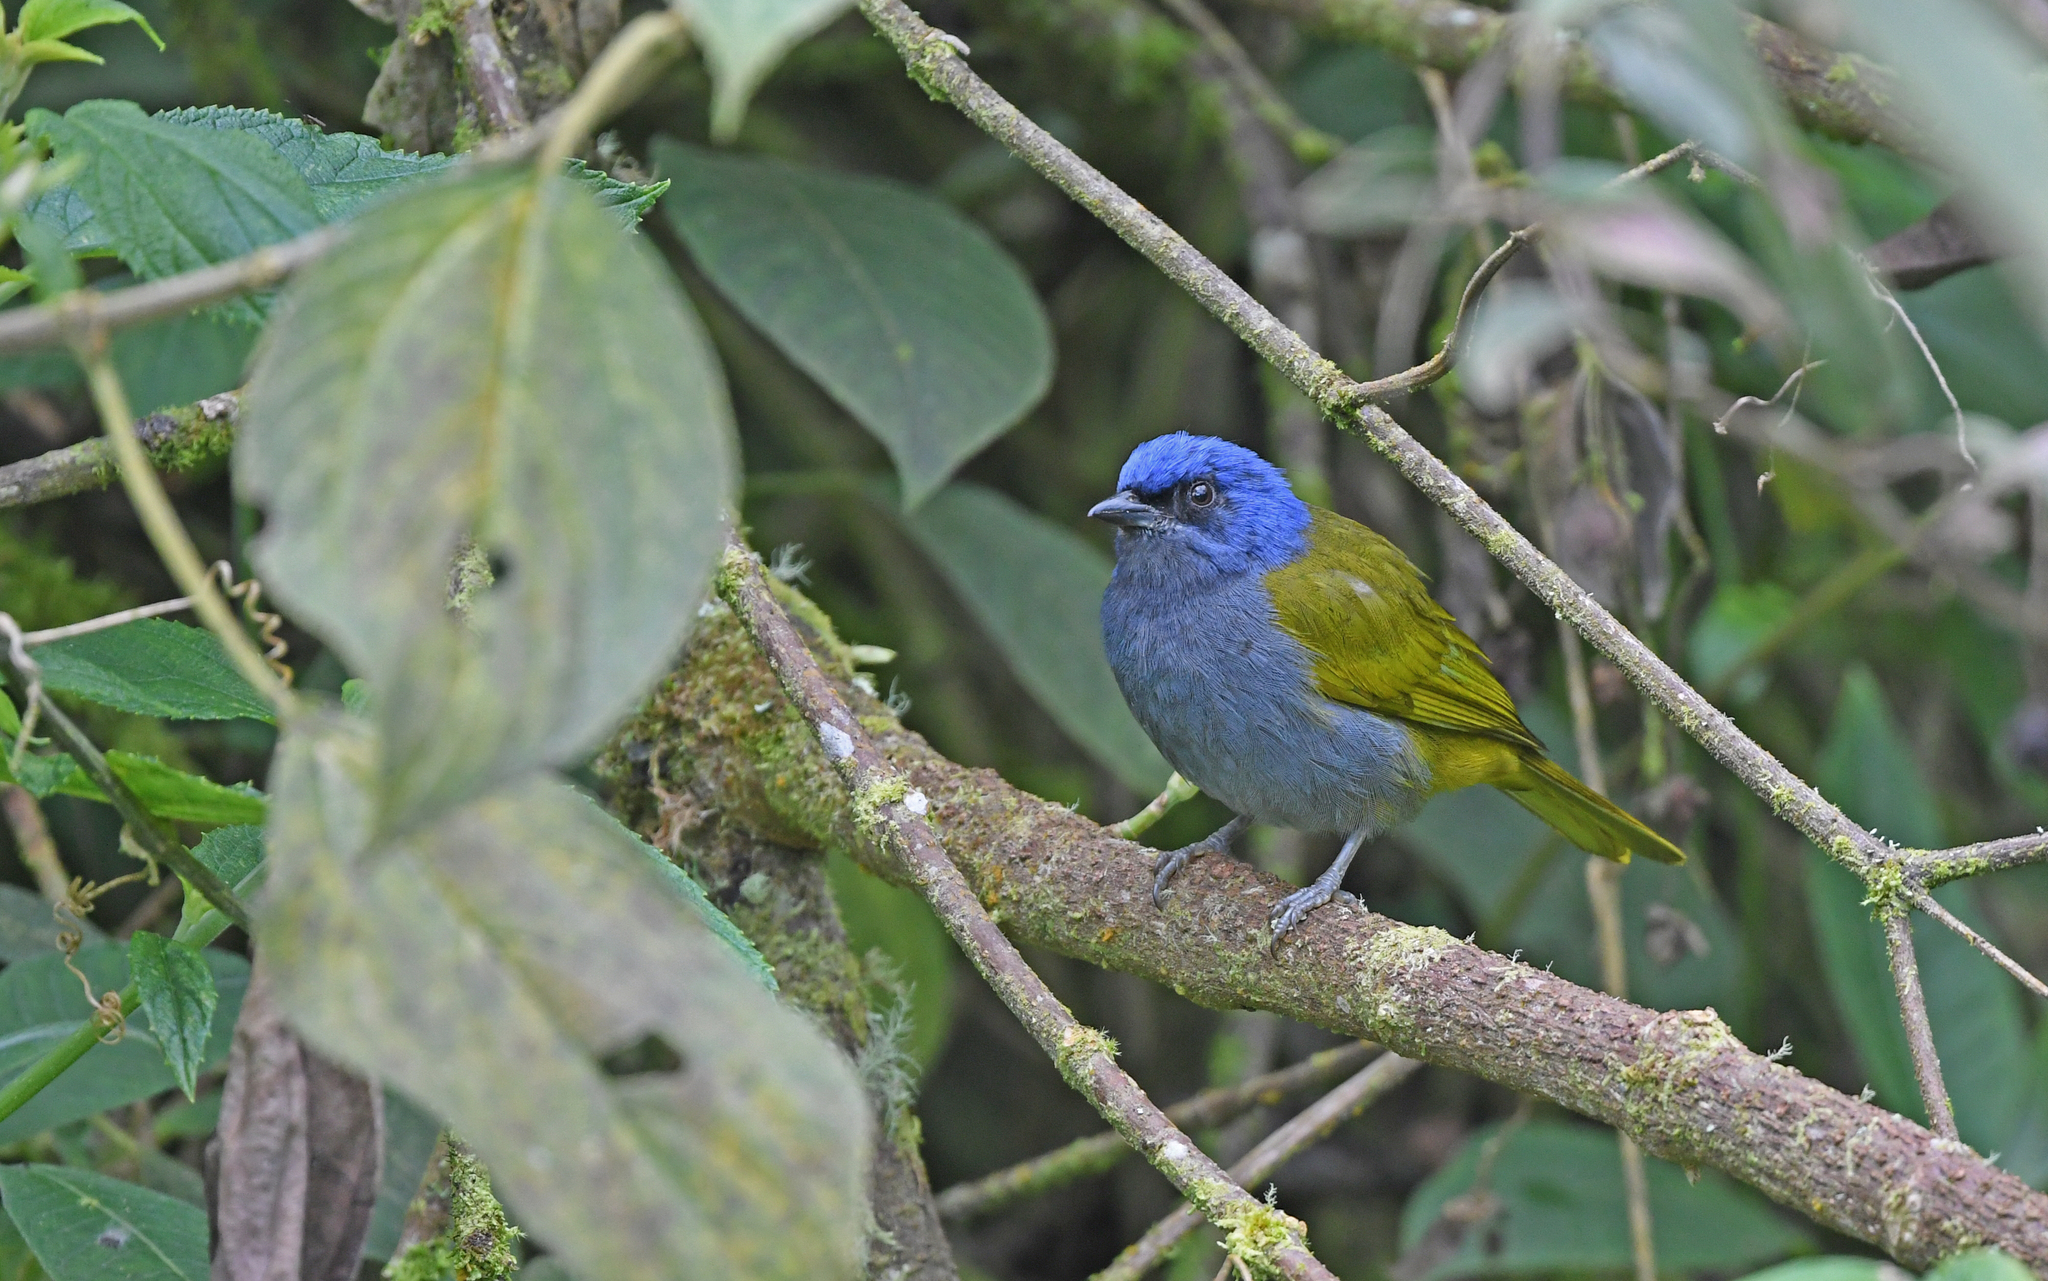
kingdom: Animalia
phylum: Chordata
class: Aves
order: Passeriformes
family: Thraupidae
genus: Sporathraupis
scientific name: Sporathraupis cyanocephala
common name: Blue-capped tanager
